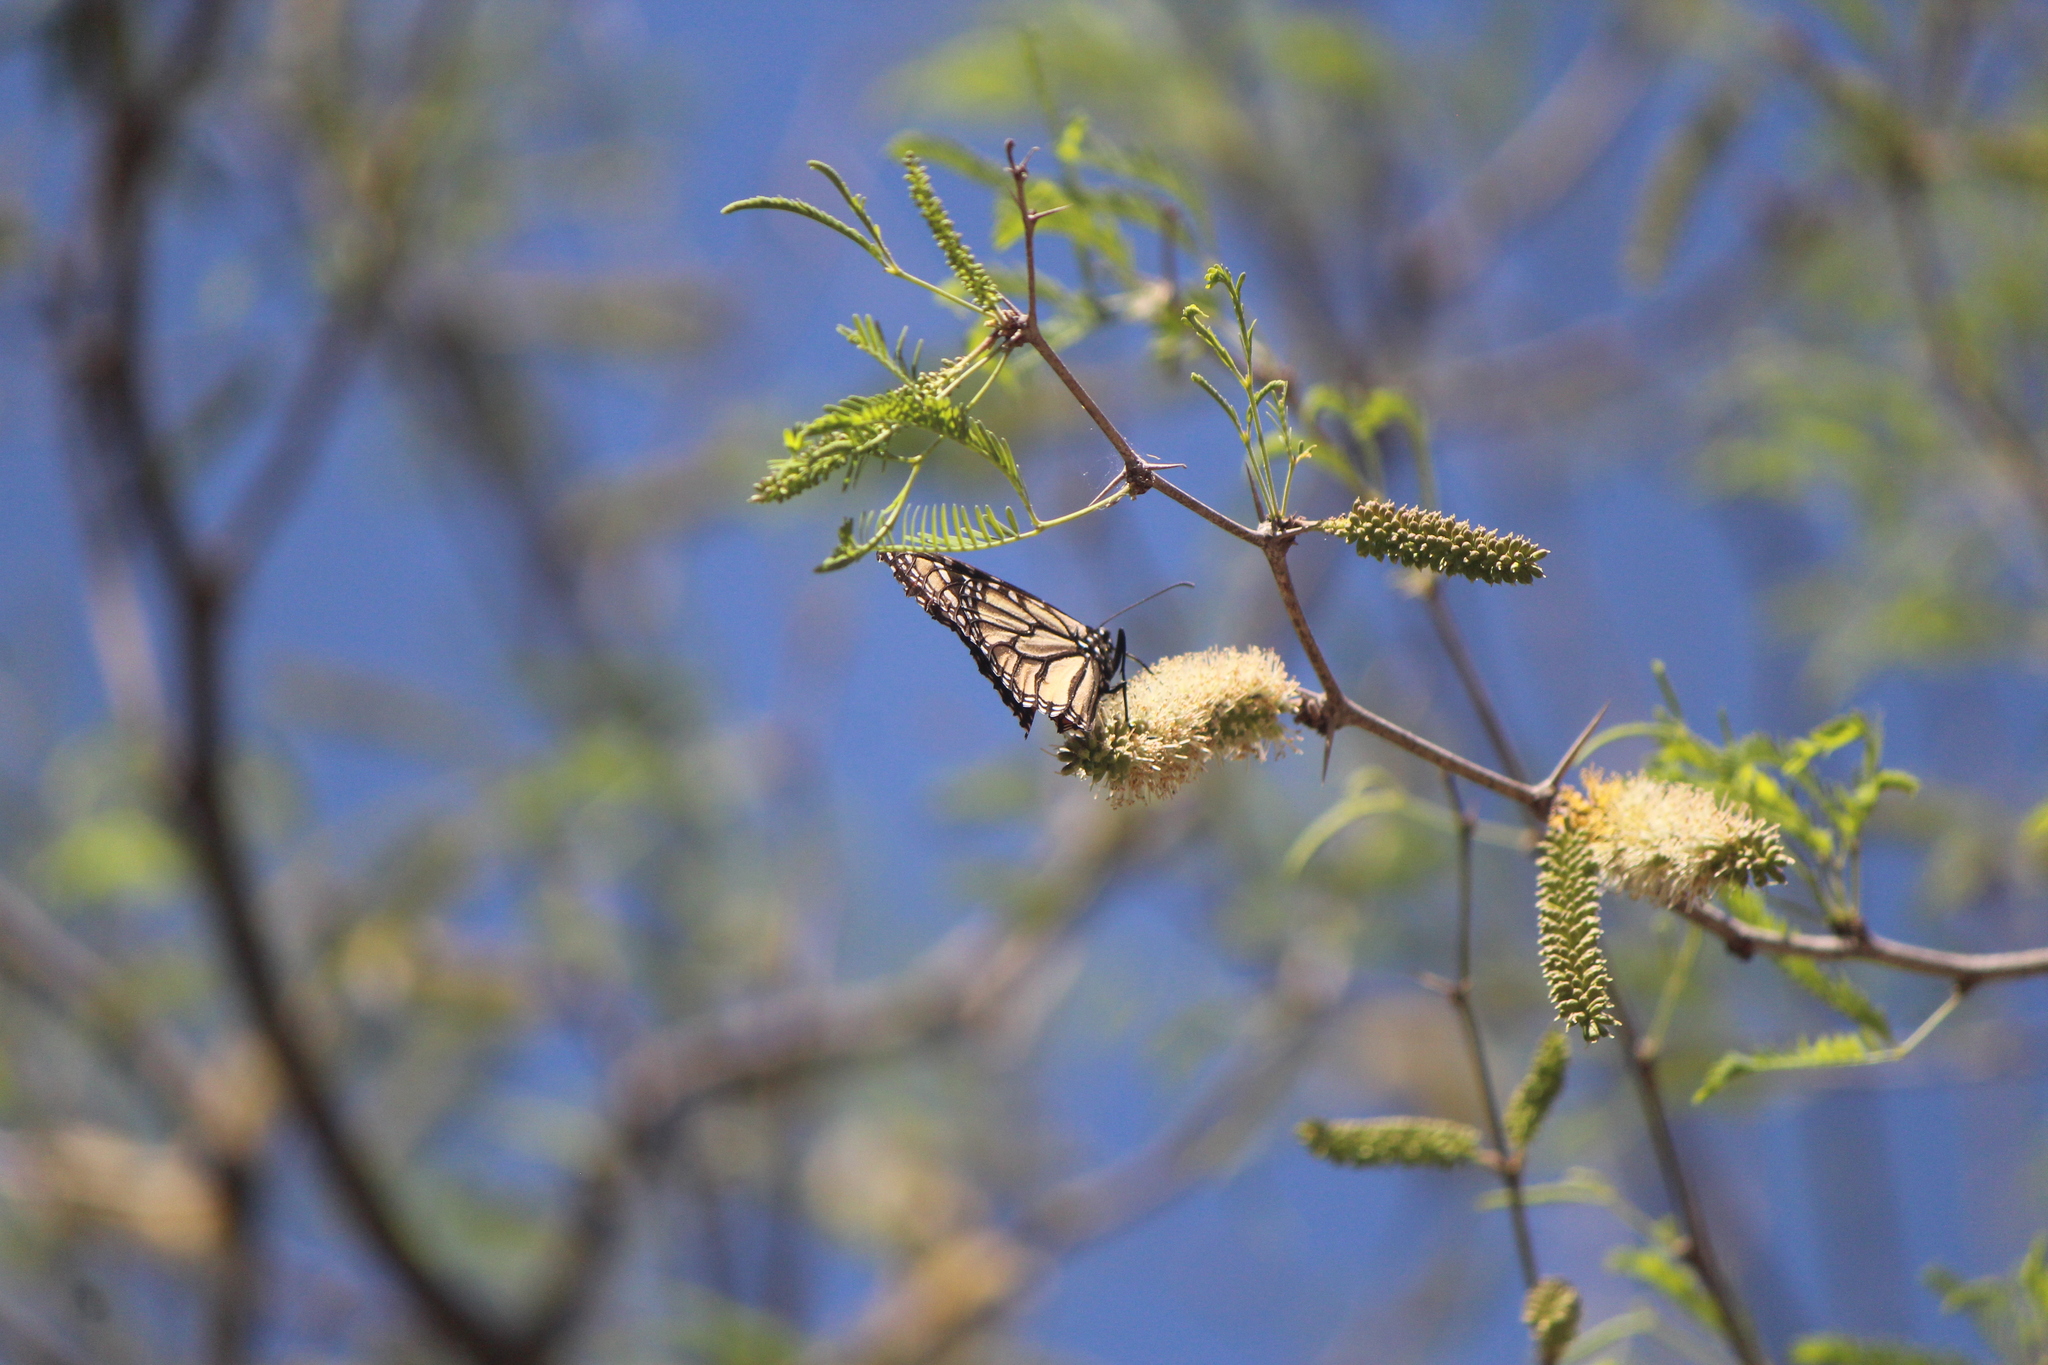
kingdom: Animalia
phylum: Arthropoda
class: Insecta
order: Lepidoptera
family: Nymphalidae
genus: Danaus
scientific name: Danaus plexippus
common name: Monarch
